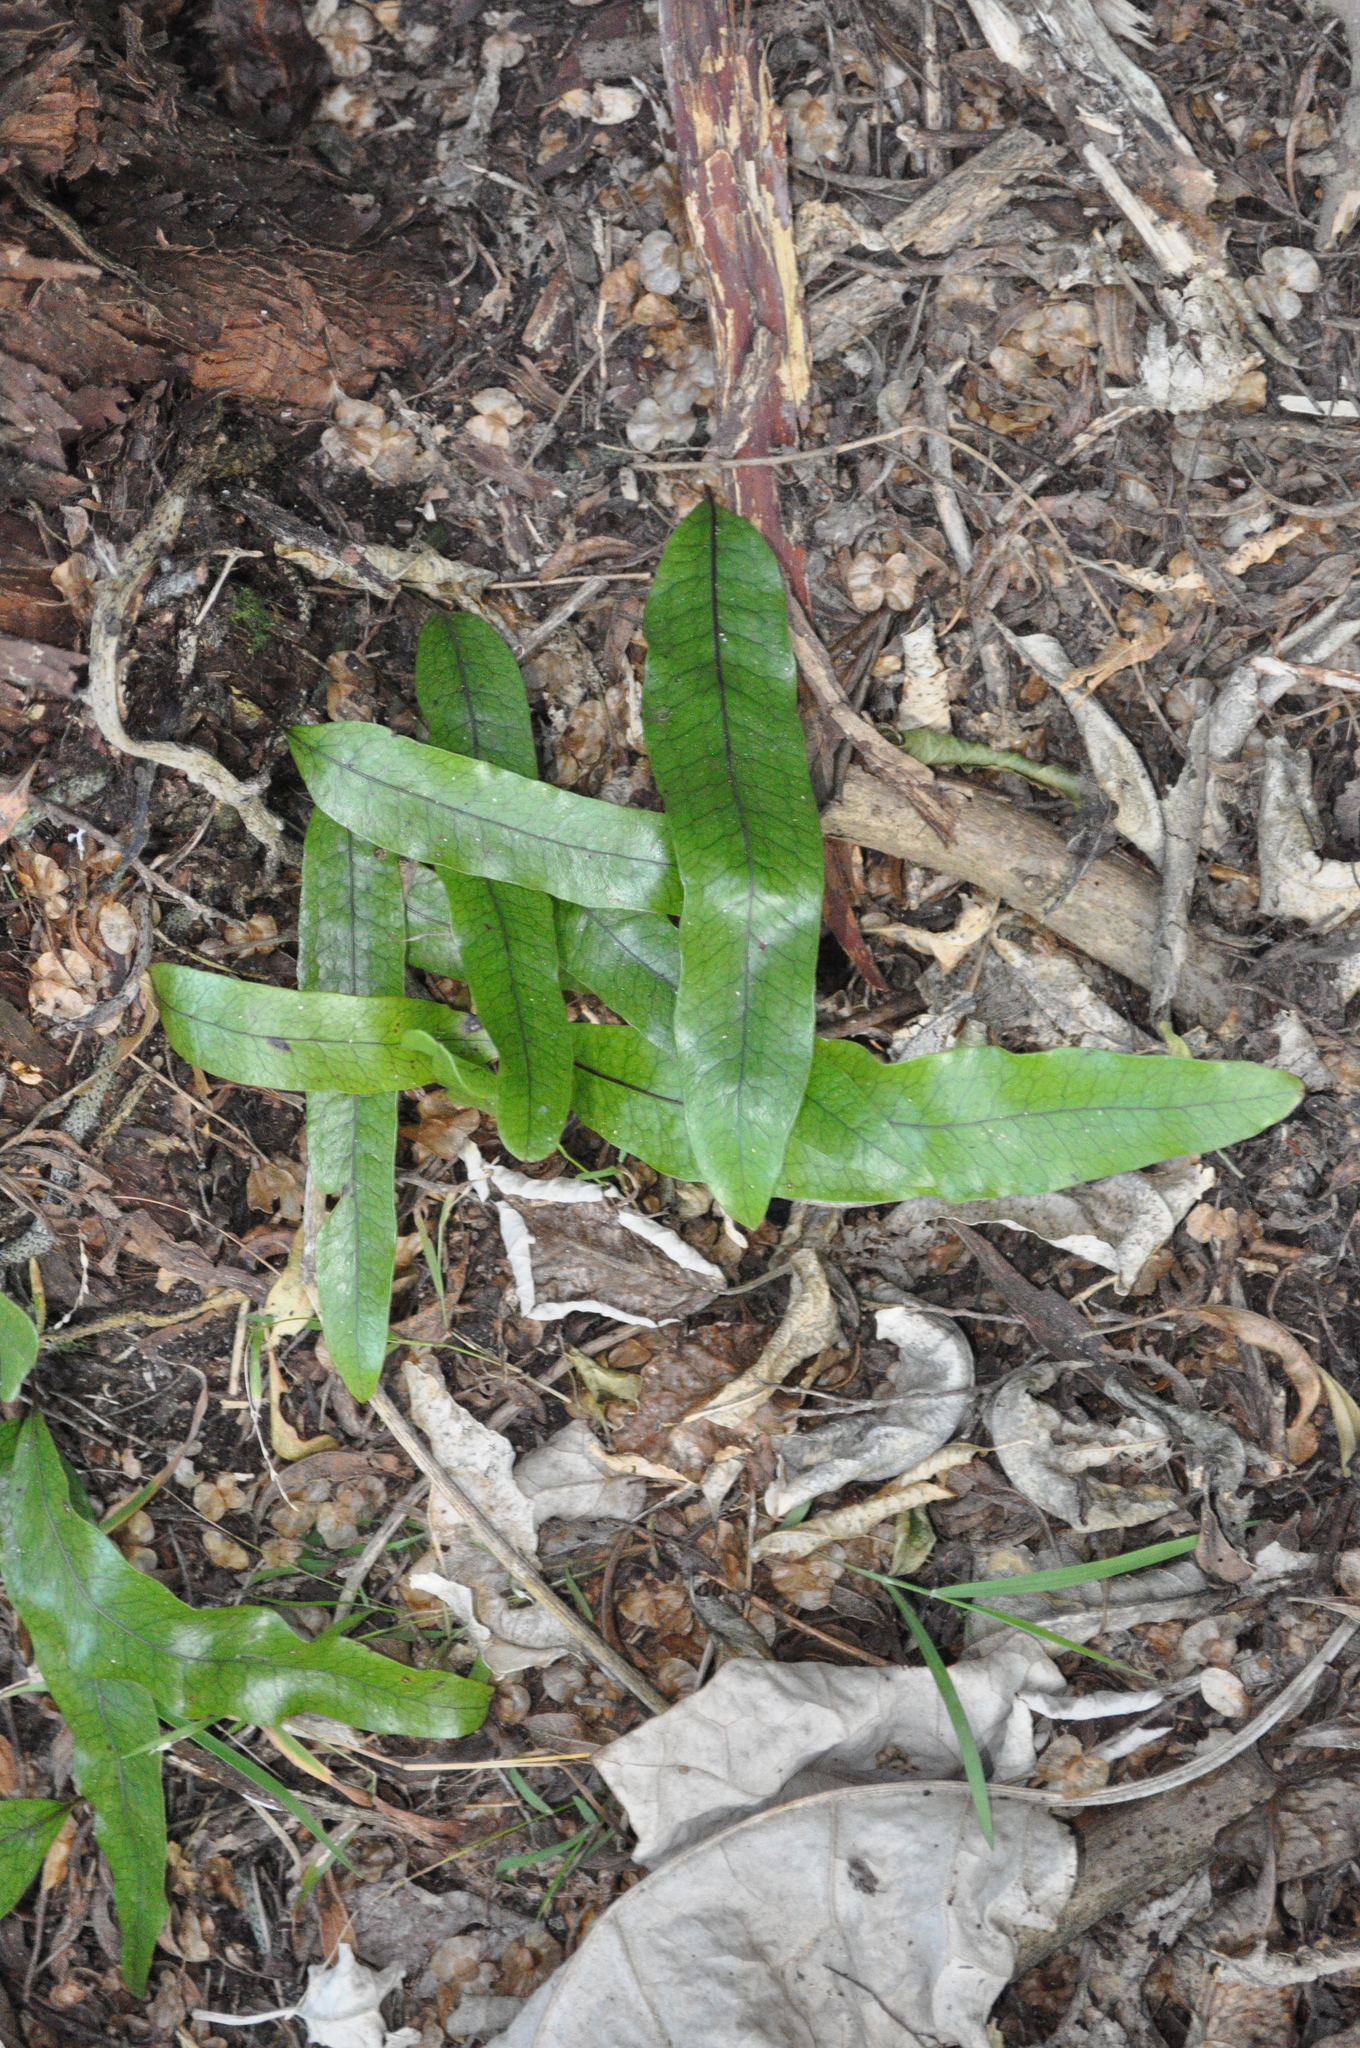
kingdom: Plantae
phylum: Tracheophyta
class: Polypodiopsida
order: Polypodiales
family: Polypodiaceae
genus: Lecanopteris
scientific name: Lecanopteris pustulata
